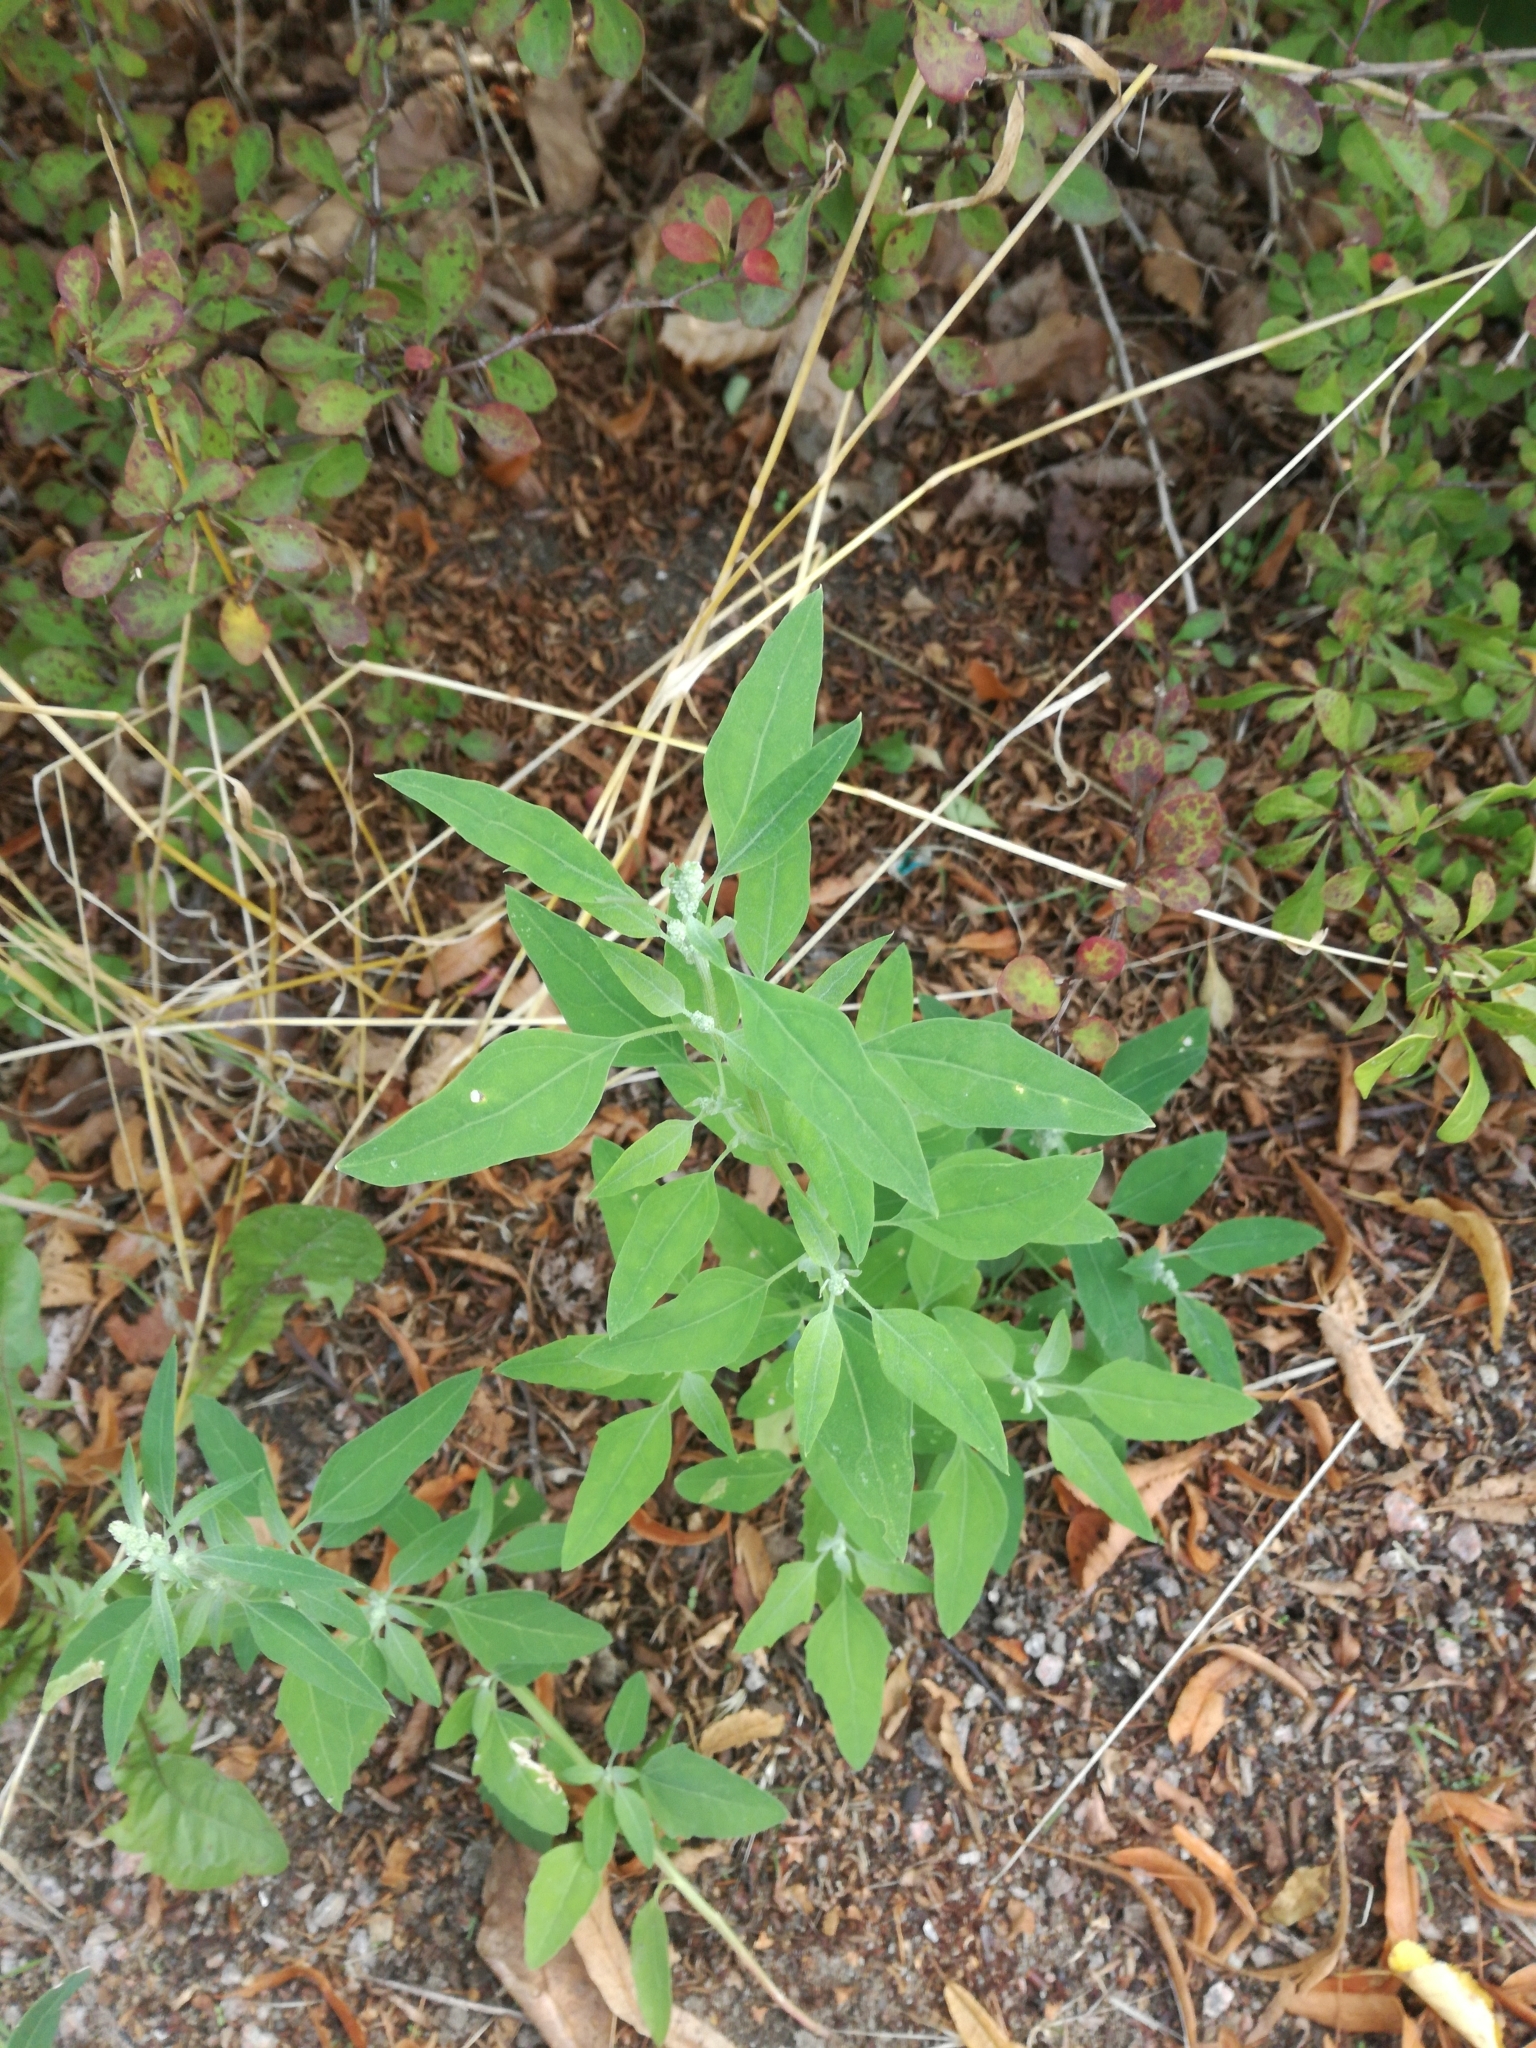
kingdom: Plantae
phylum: Tracheophyta
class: Magnoliopsida
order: Caryophyllales
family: Amaranthaceae
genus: Chenopodium
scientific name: Chenopodium album
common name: Fat-hen
